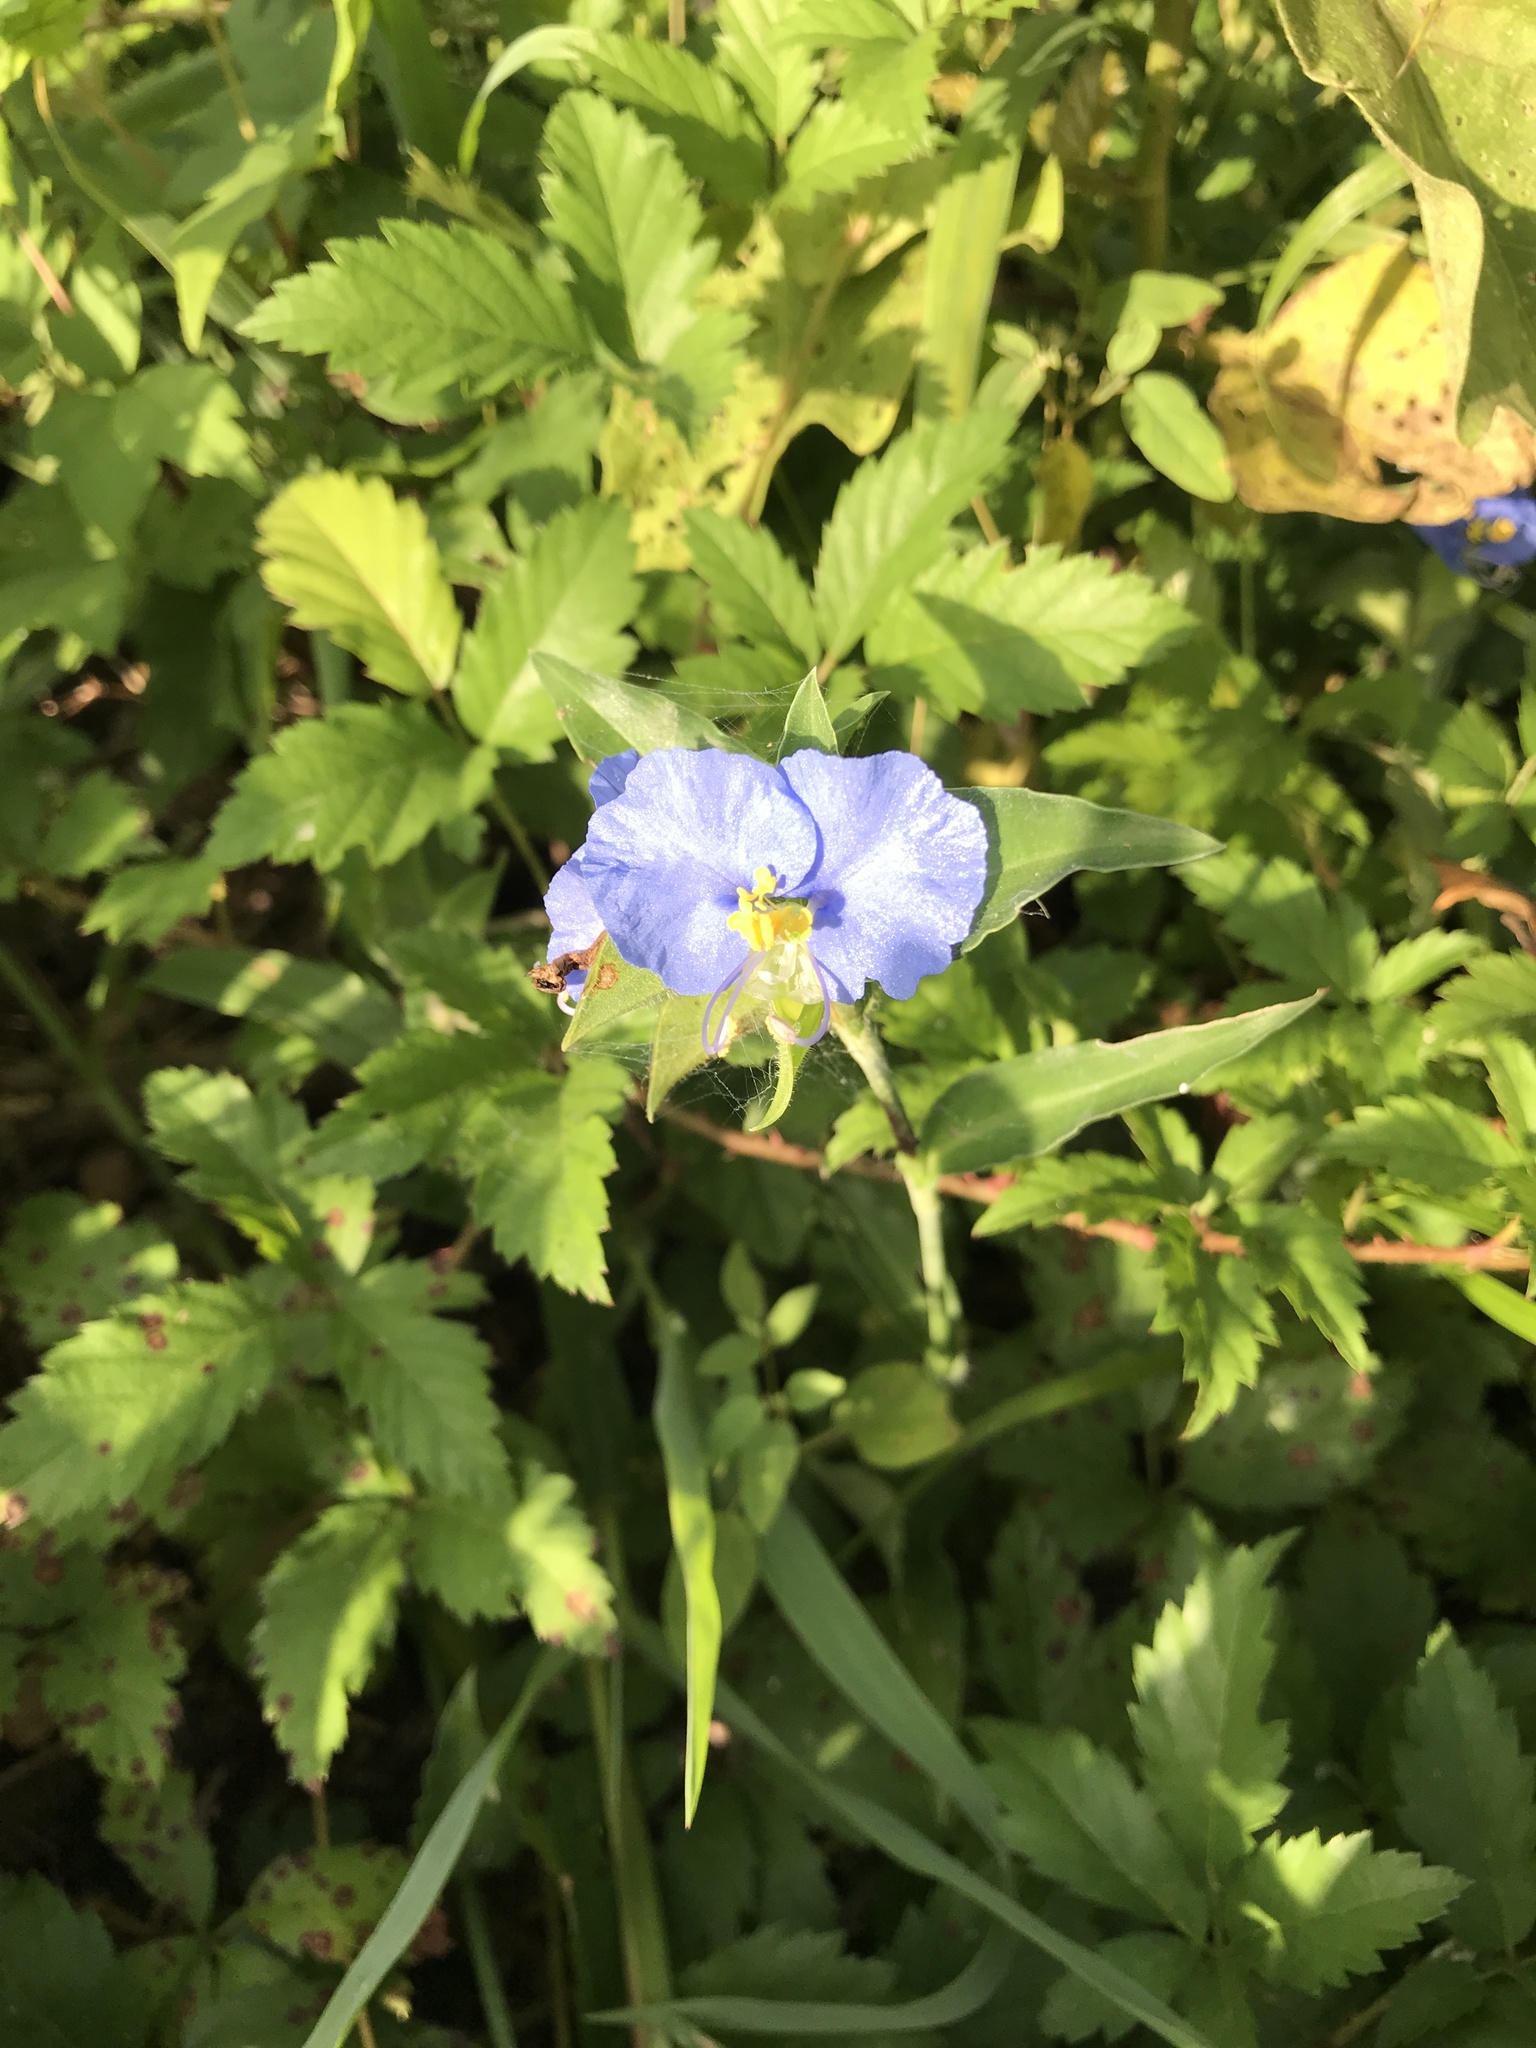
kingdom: Plantae
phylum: Tracheophyta
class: Liliopsida
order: Commelinales
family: Commelinaceae
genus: Commelina
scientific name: Commelina erecta
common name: Blousel blommetjie
